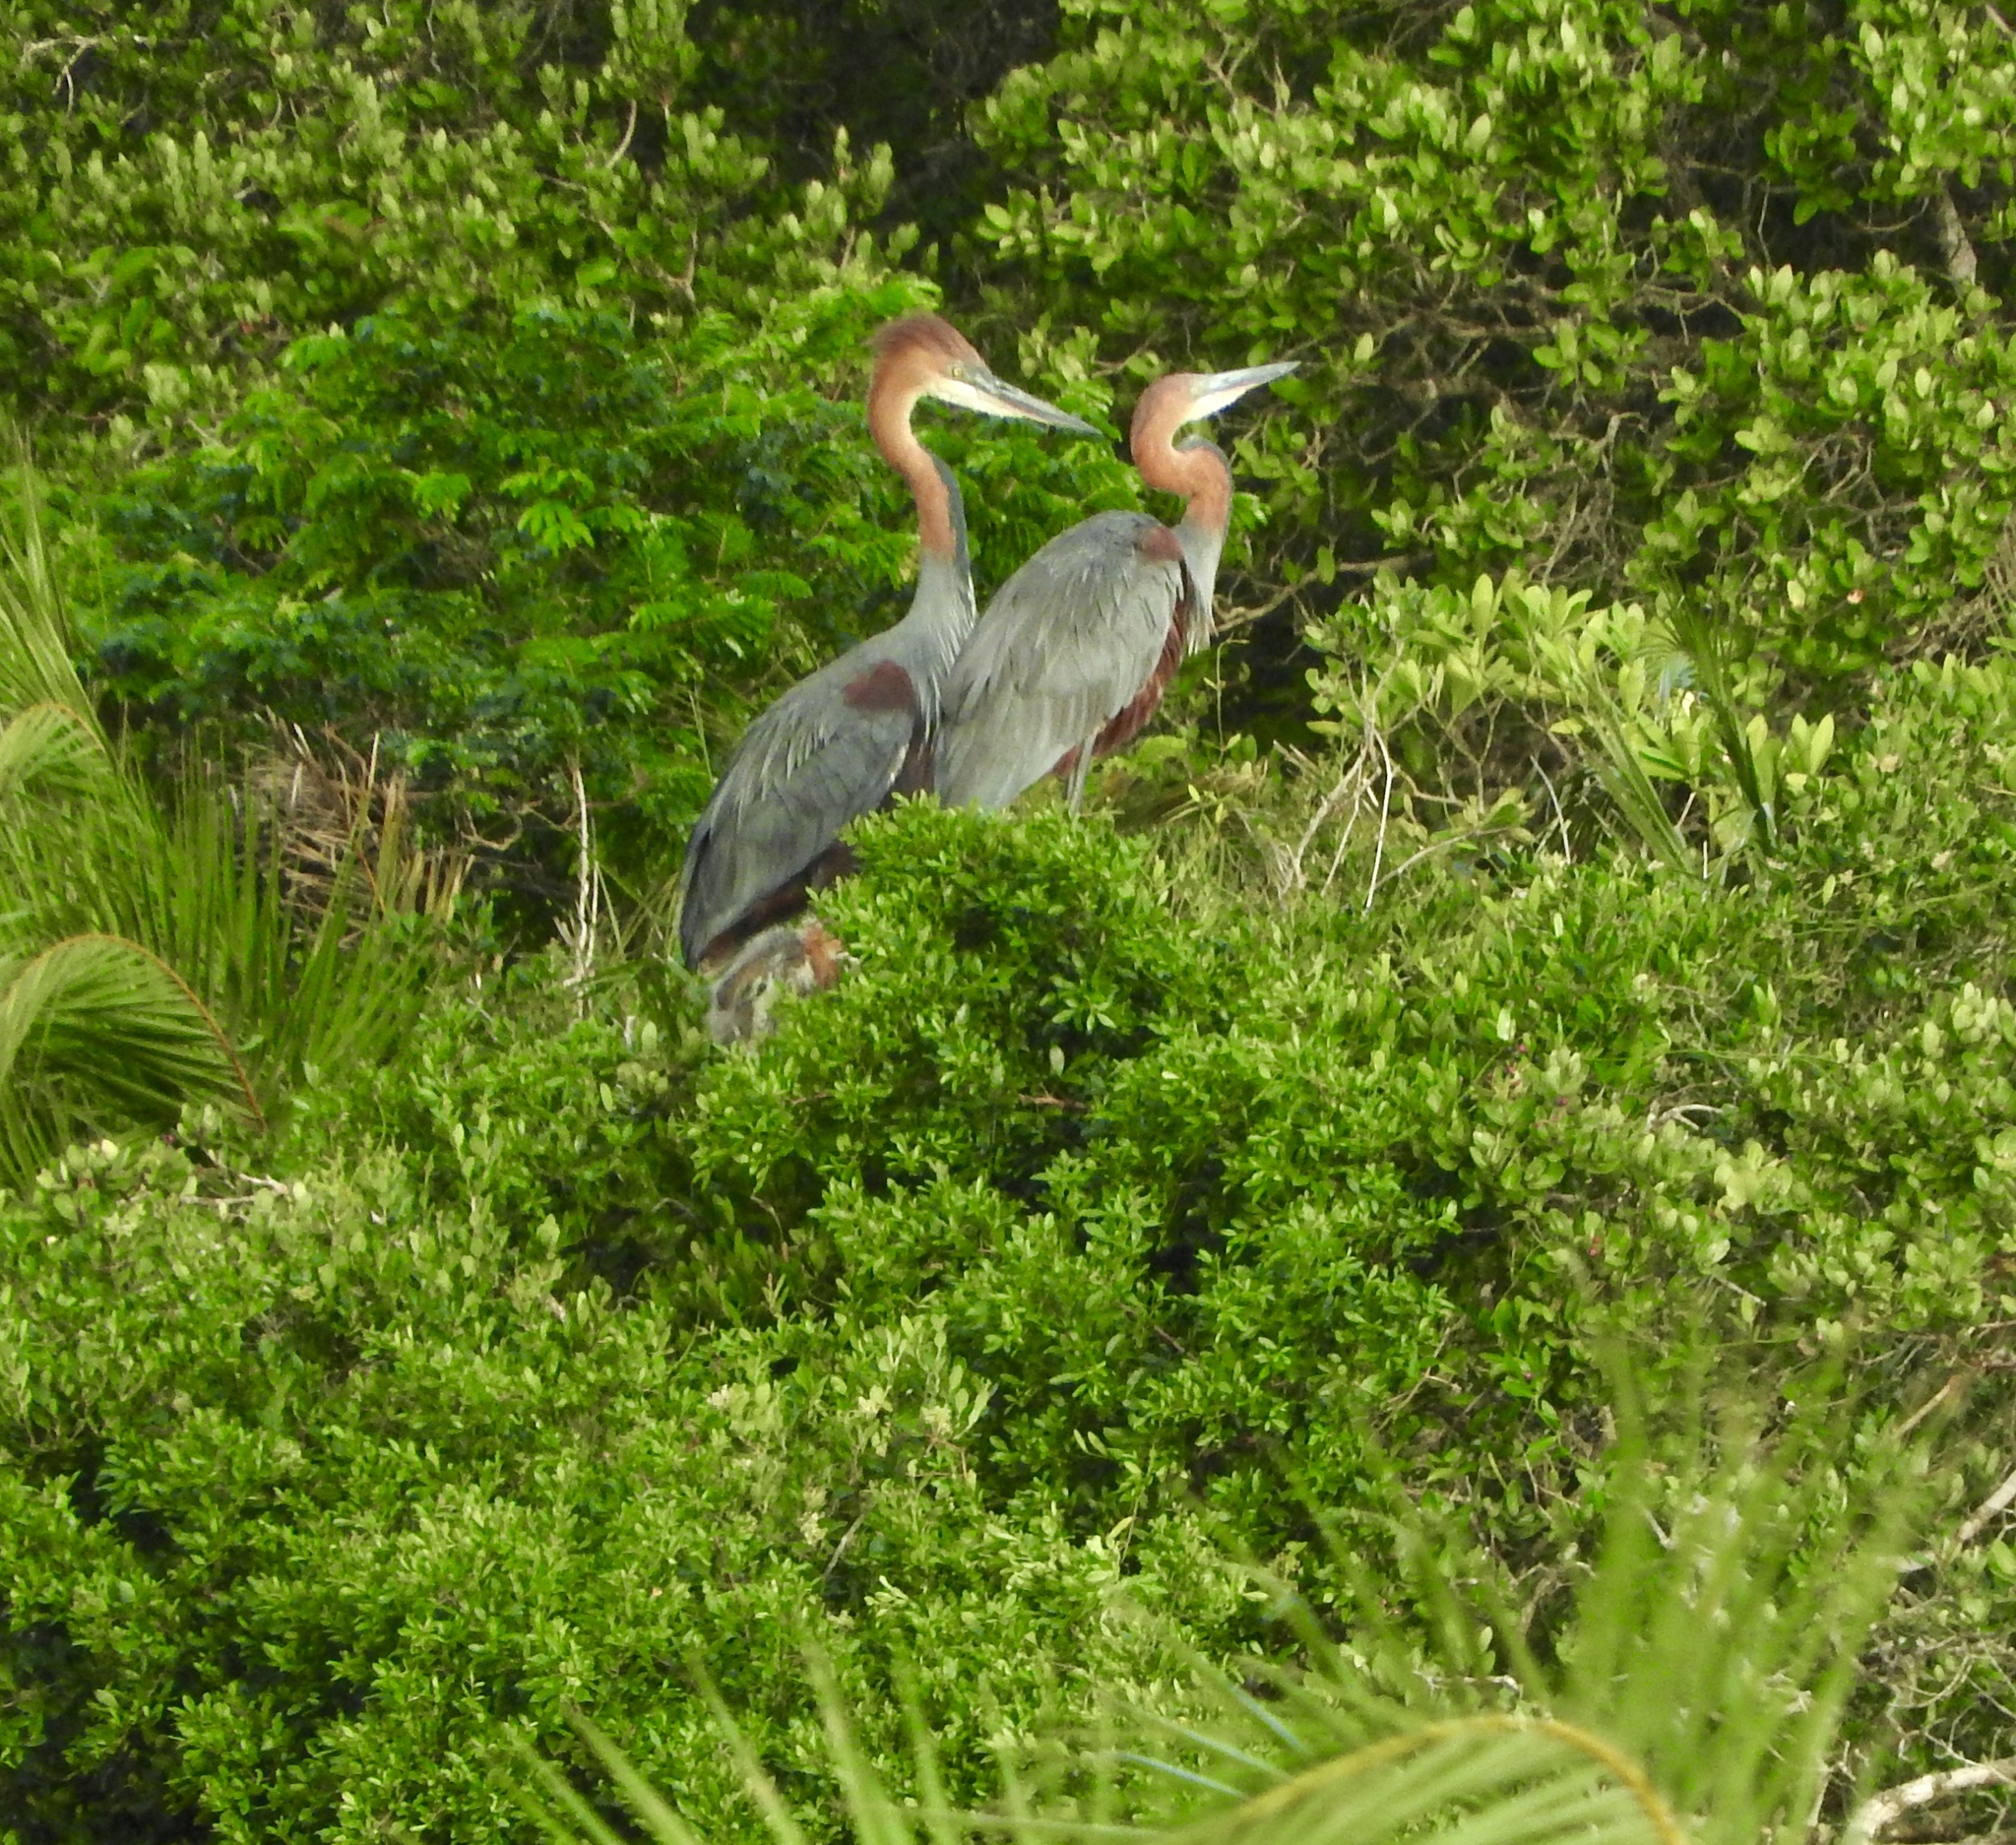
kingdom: Animalia
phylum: Chordata
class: Aves
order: Pelecaniformes
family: Ardeidae
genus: Ardea
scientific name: Ardea goliath
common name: Goliath heron
